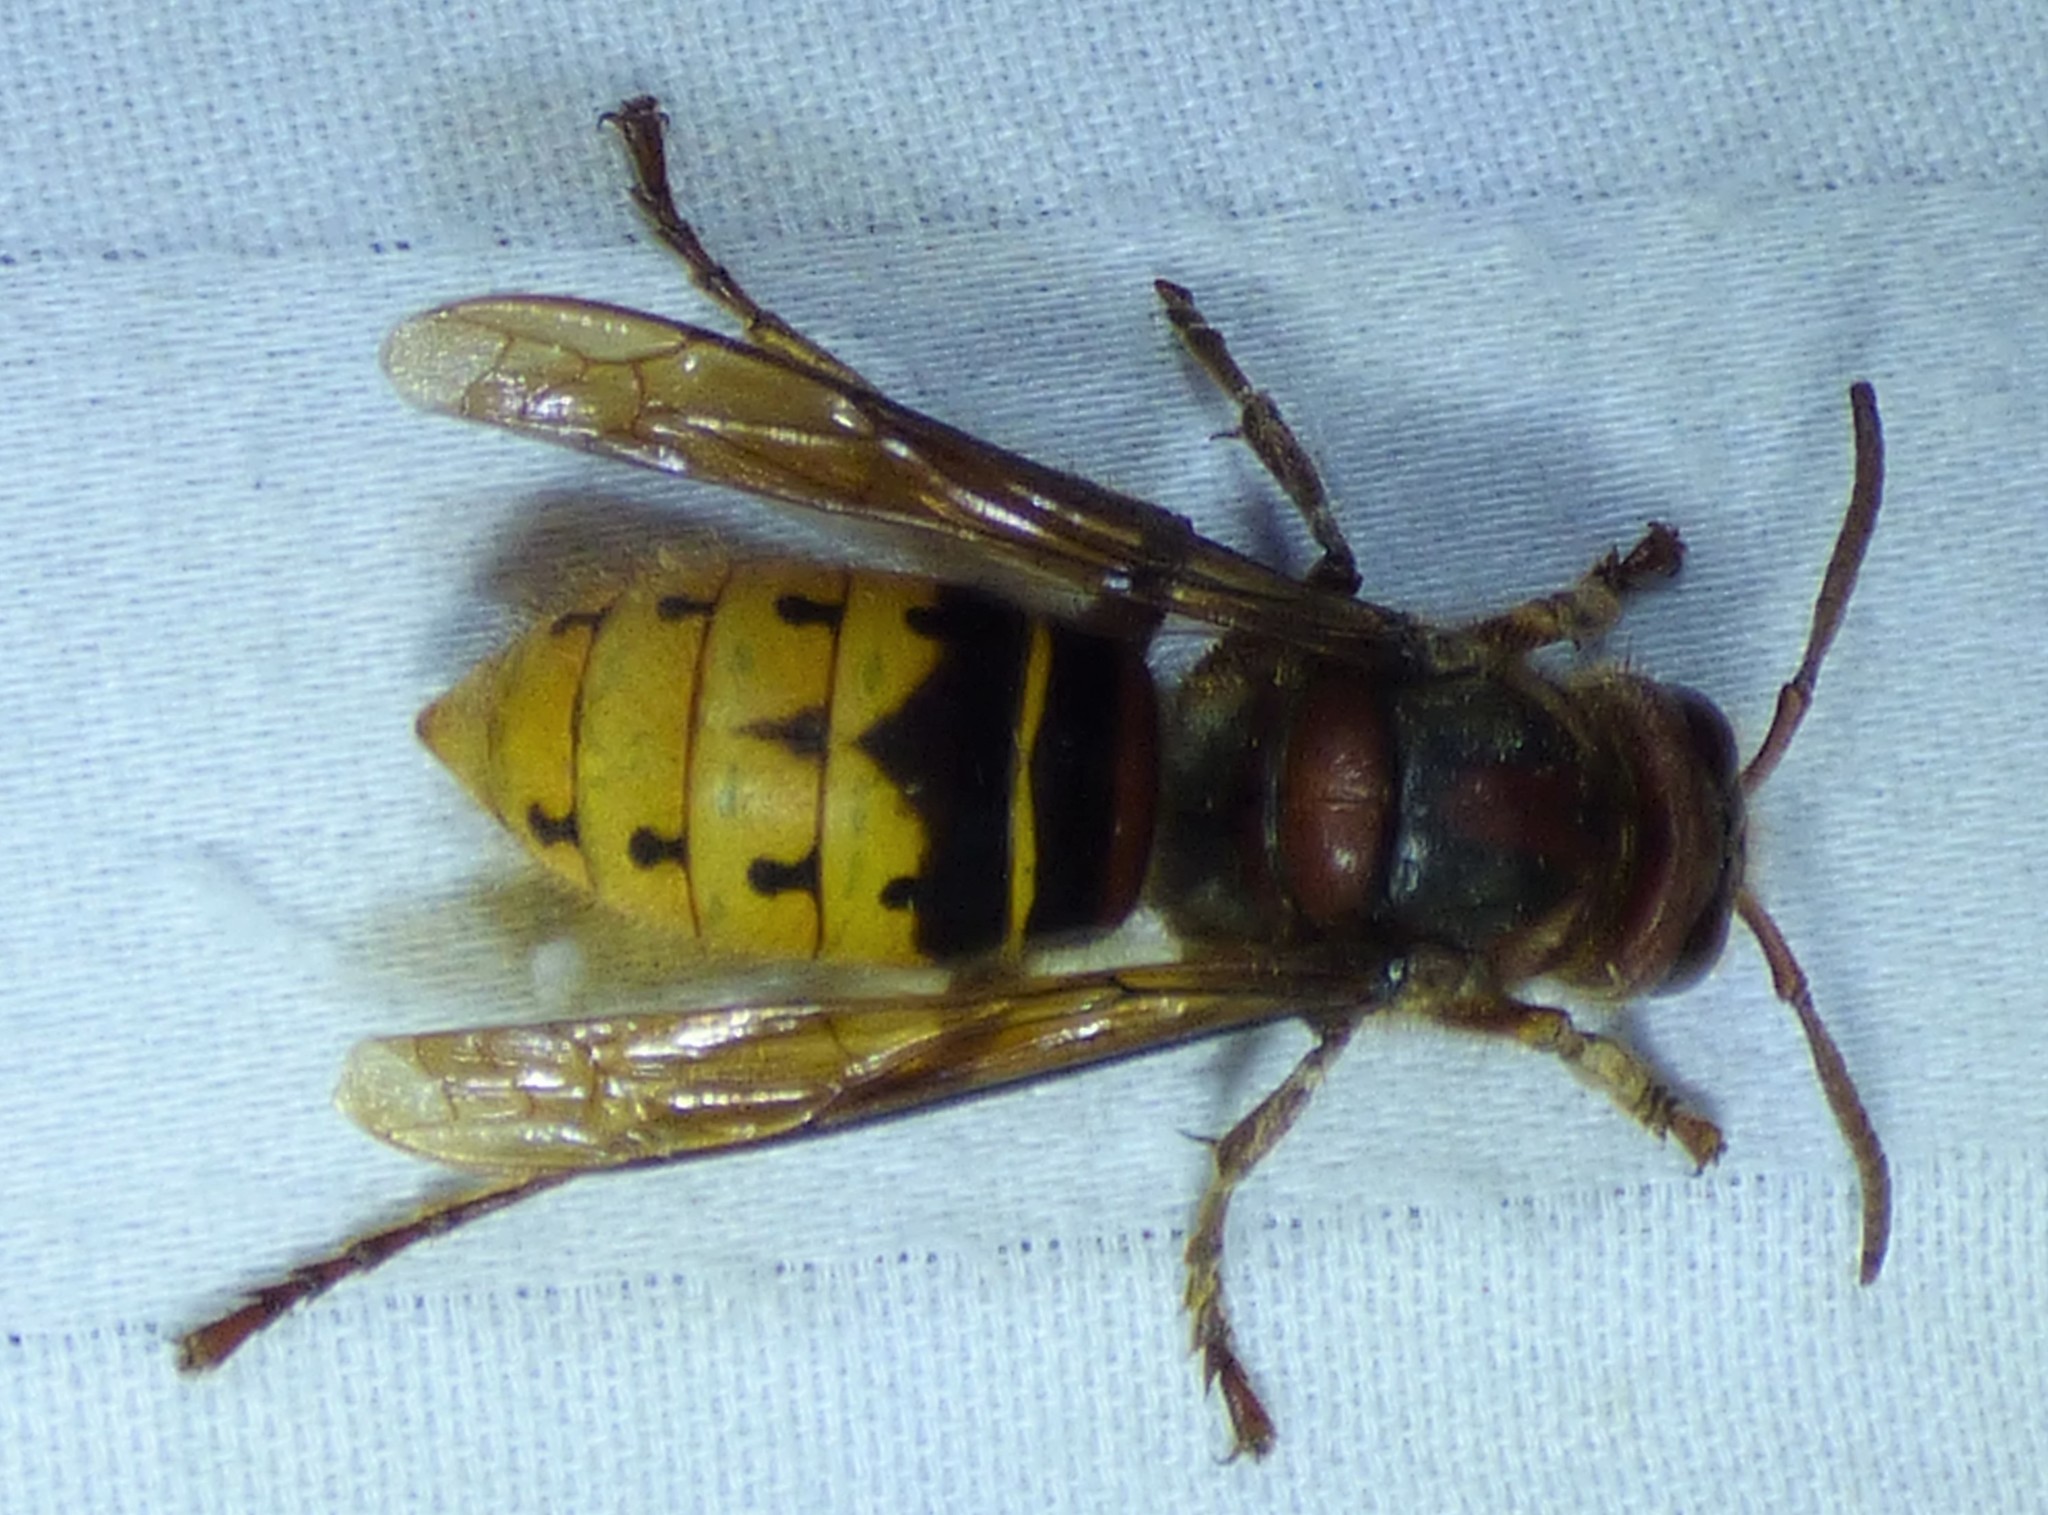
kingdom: Animalia
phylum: Arthropoda
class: Insecta
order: Hymenoptera
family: Vespidae
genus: Vespa
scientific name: Vespa crabro
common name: Hornet
